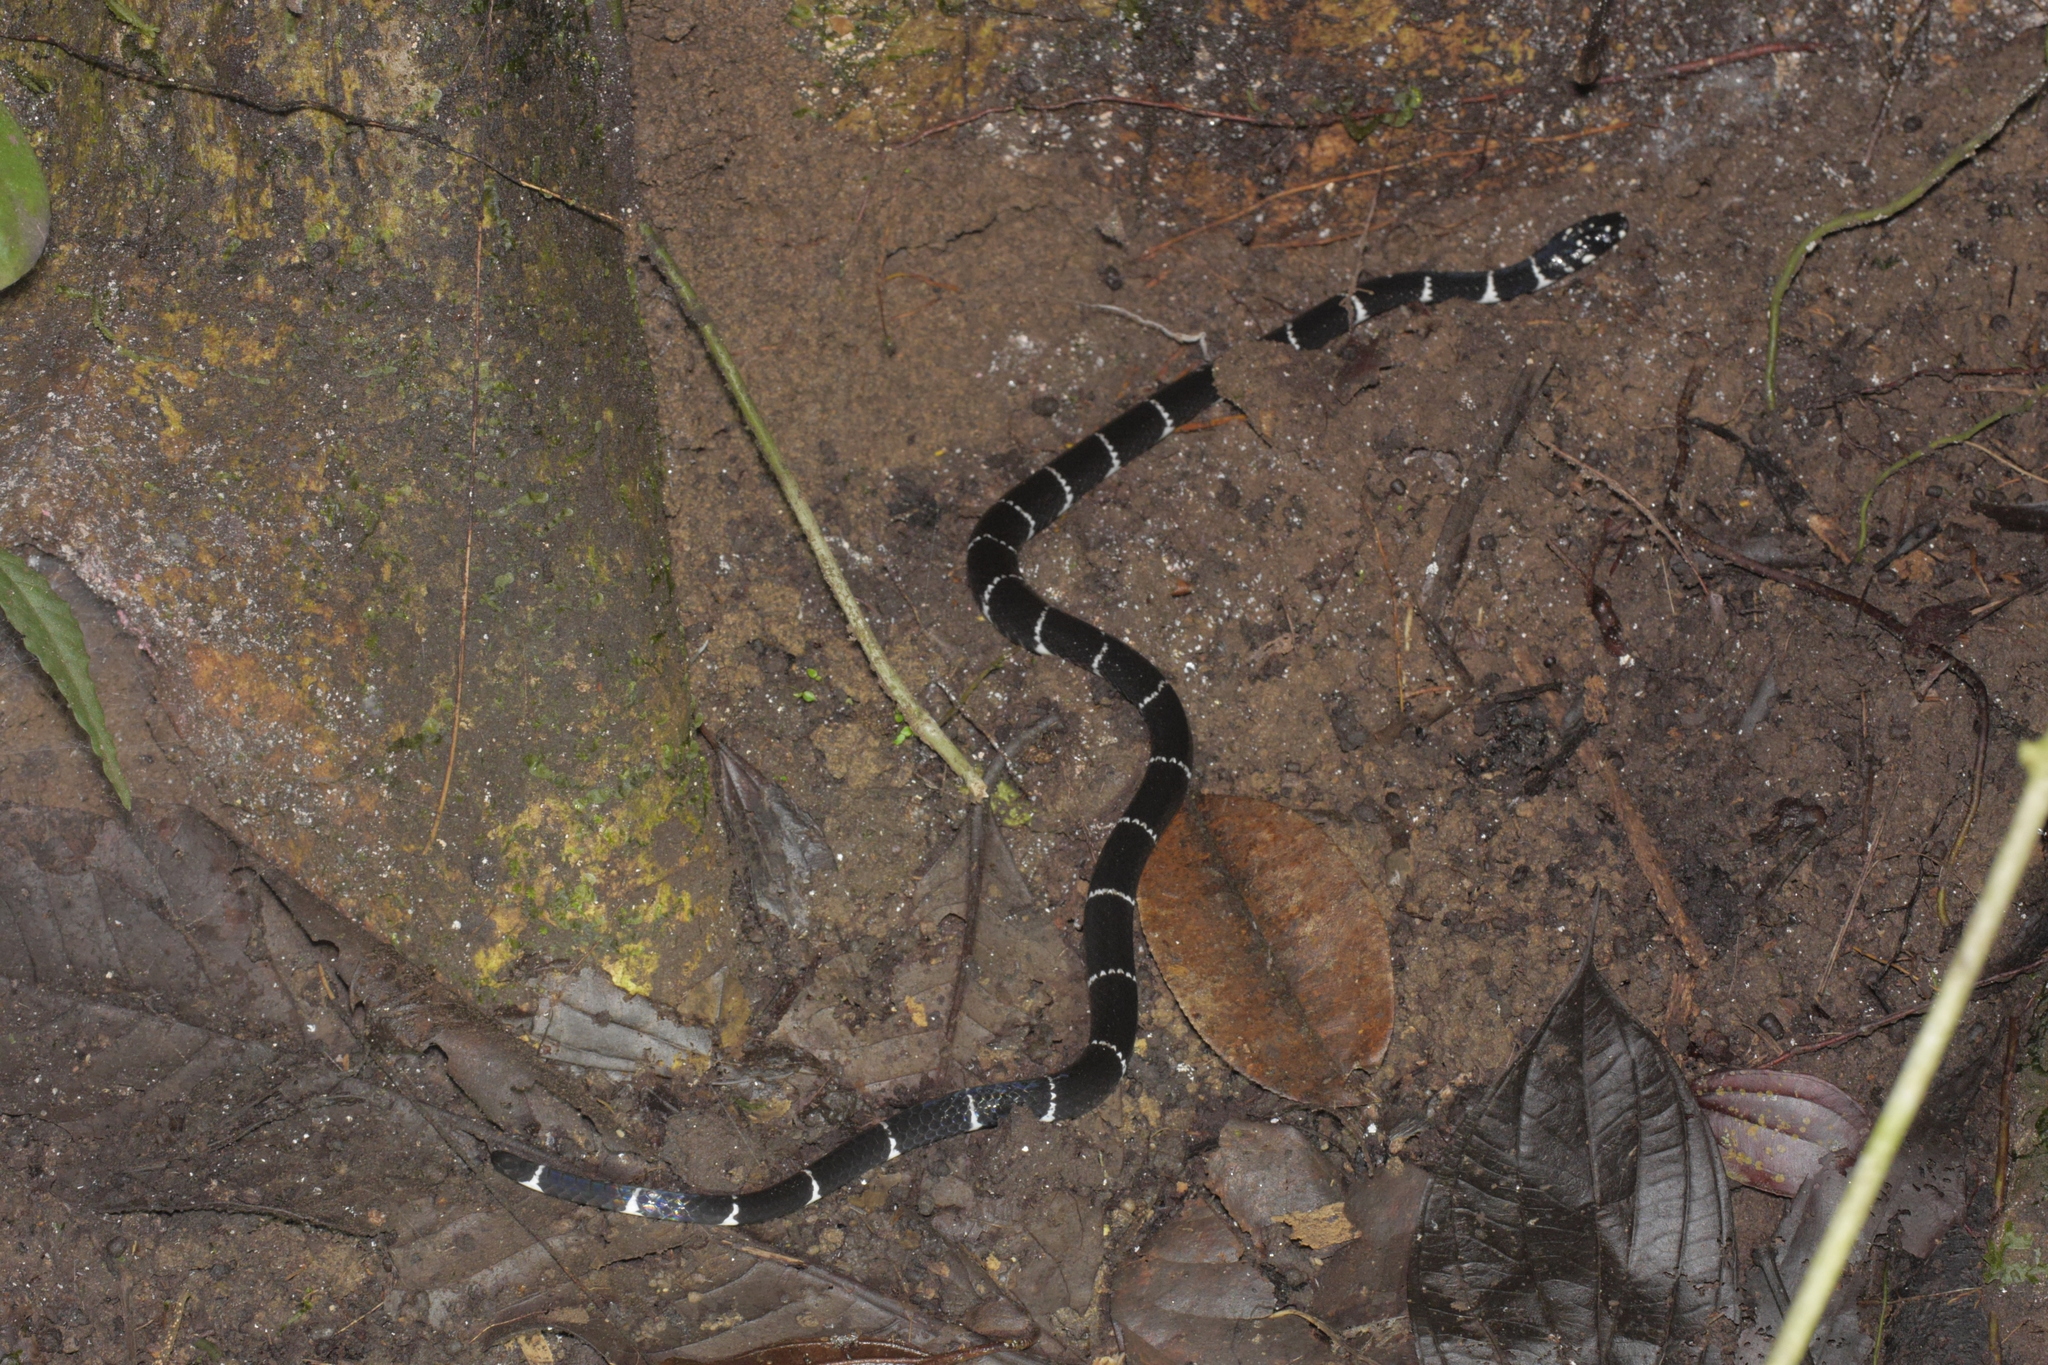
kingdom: Animalia
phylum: Chordata
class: Squamata
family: Colubridae
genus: Pliocercus
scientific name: Pliocercus euryzonus
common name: Cope's false coral snake
